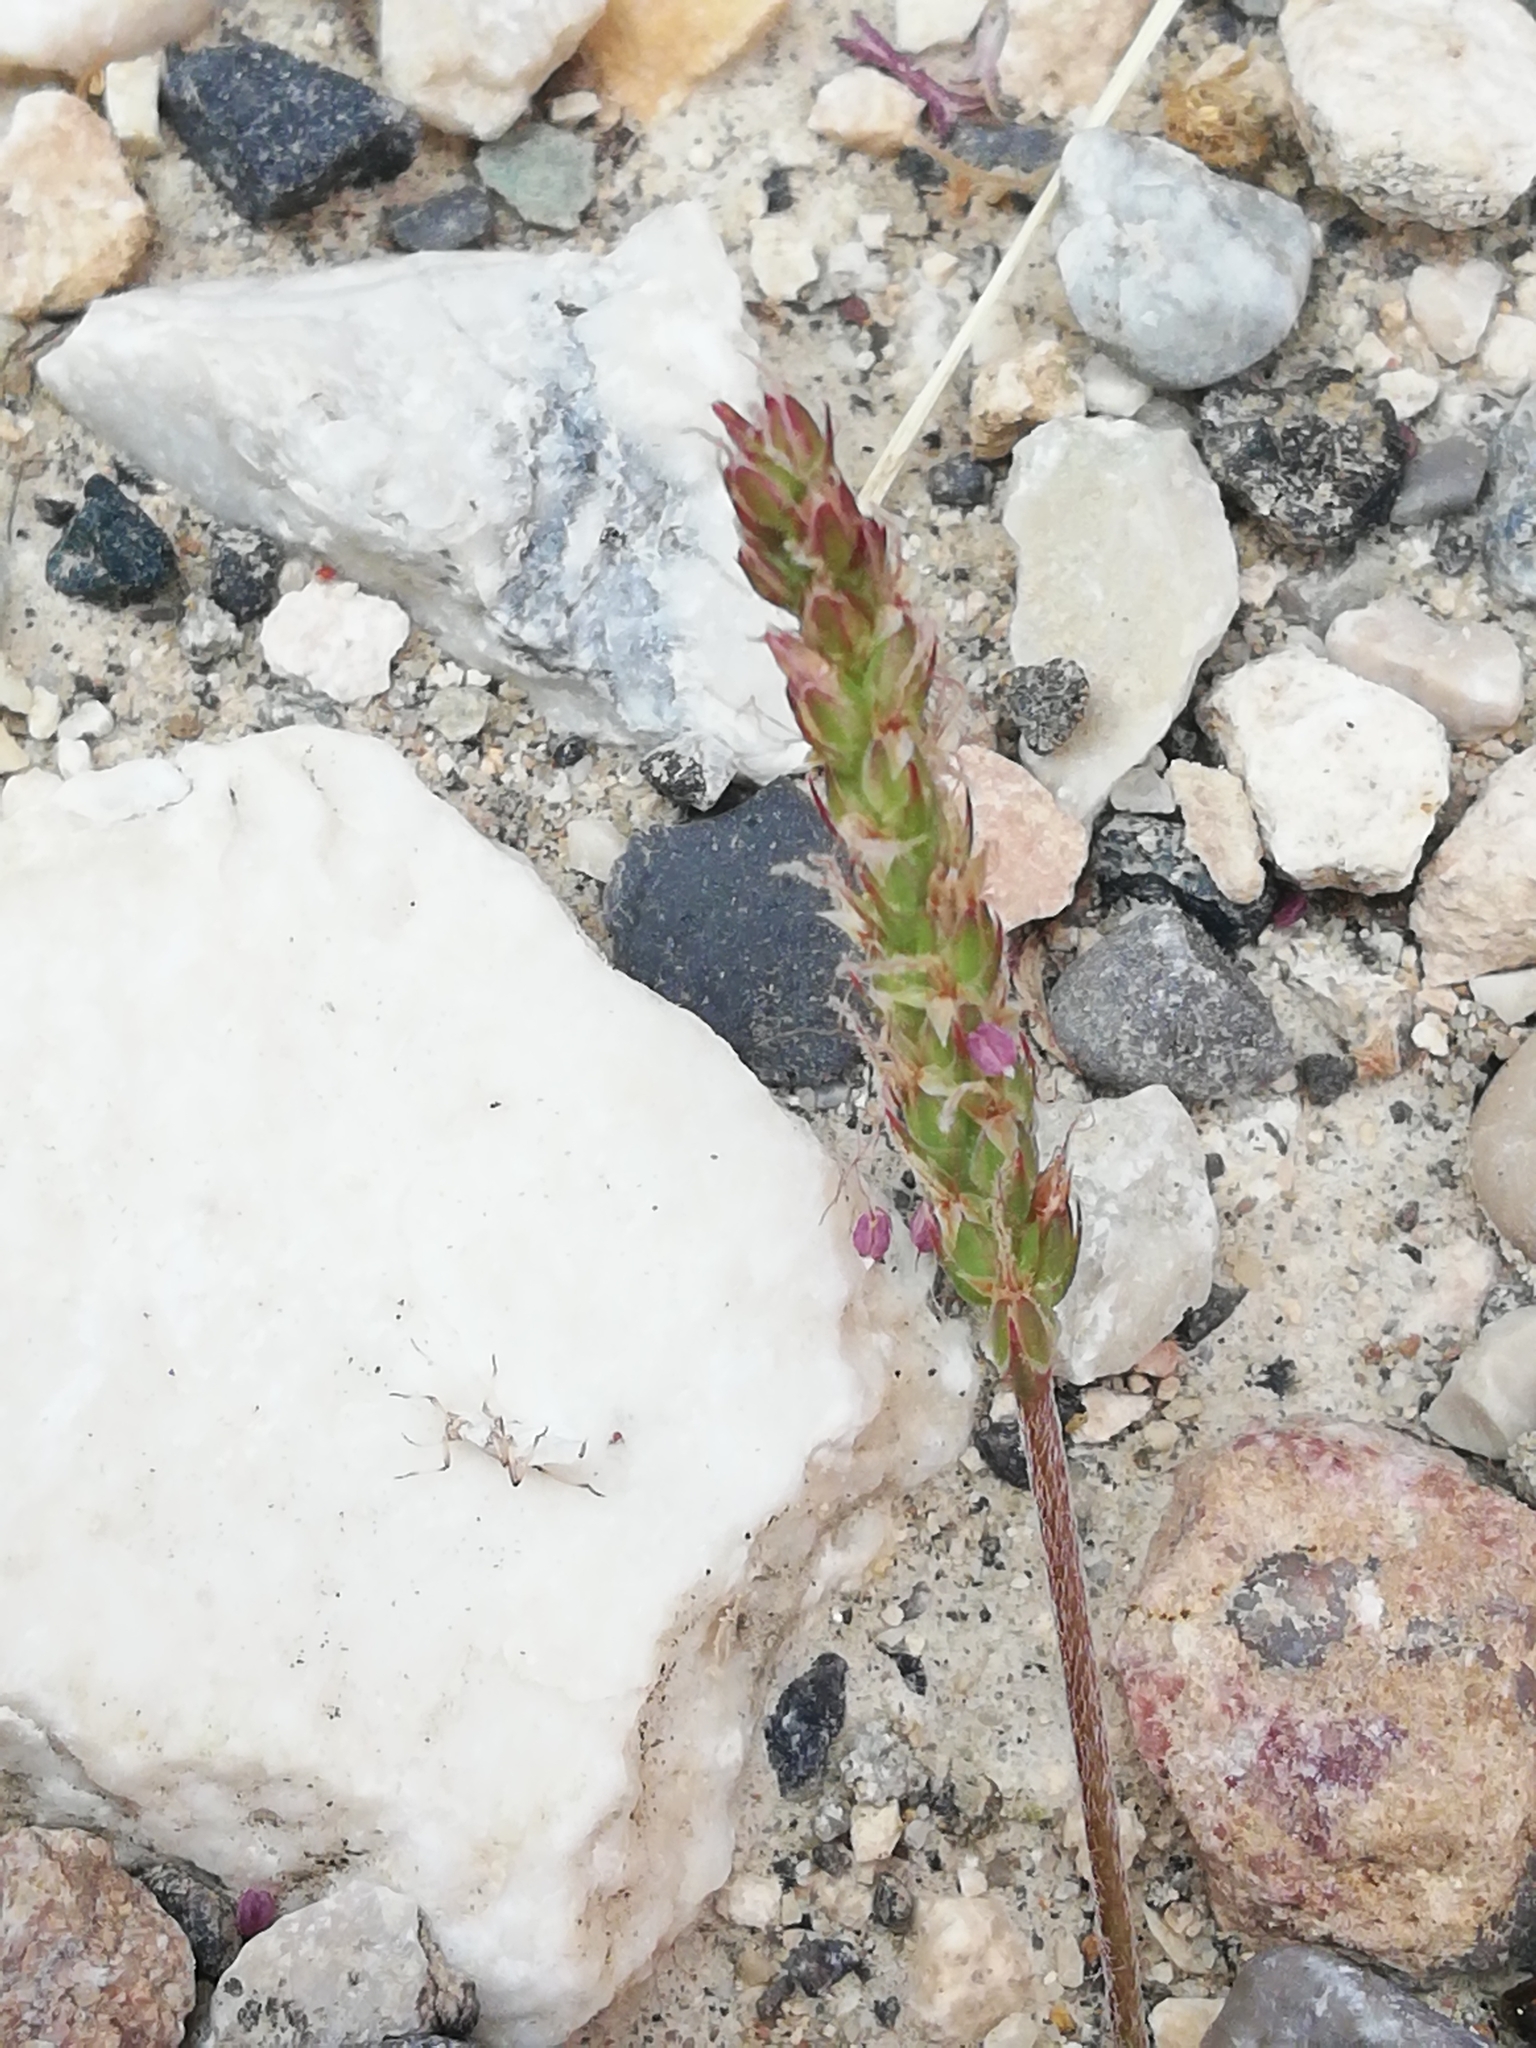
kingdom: Plantae
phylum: Tracheophyta
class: Magnoliopsida
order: Lamiales
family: Plantaginaceae
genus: Plantago
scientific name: Plantago coronopus
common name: Buck's-horn plantain
